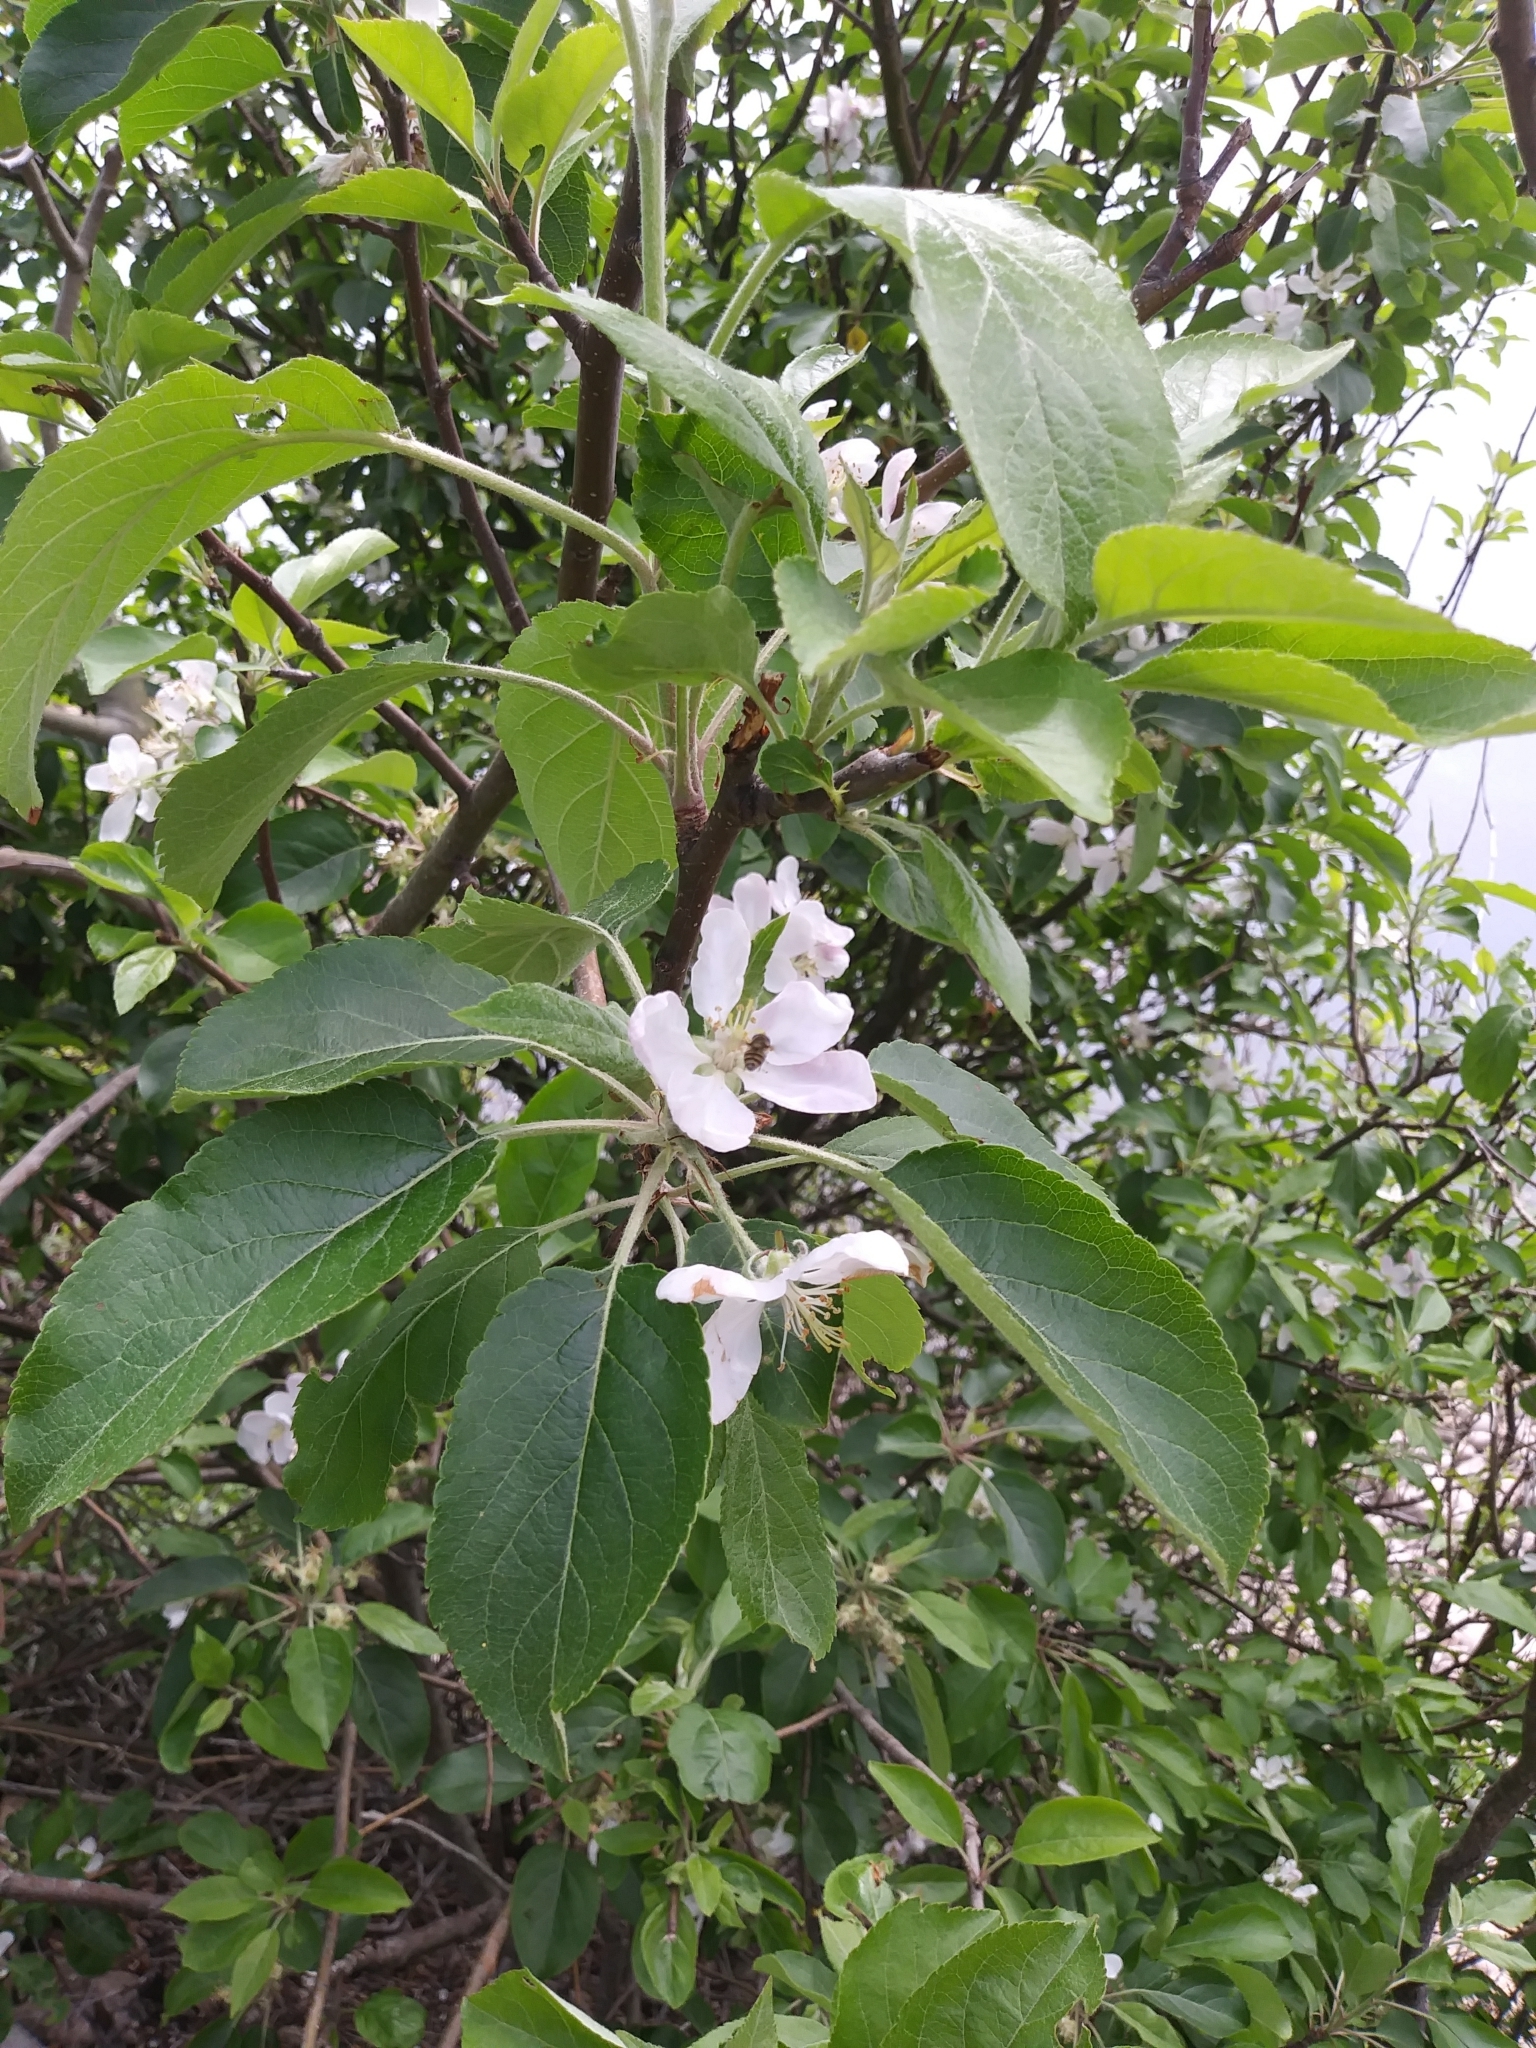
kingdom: Plantae
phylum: Tracheophyta
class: Magnoliopsida
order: Rosales
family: Rosaceae
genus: Malus
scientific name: Malus domestica
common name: Apple
